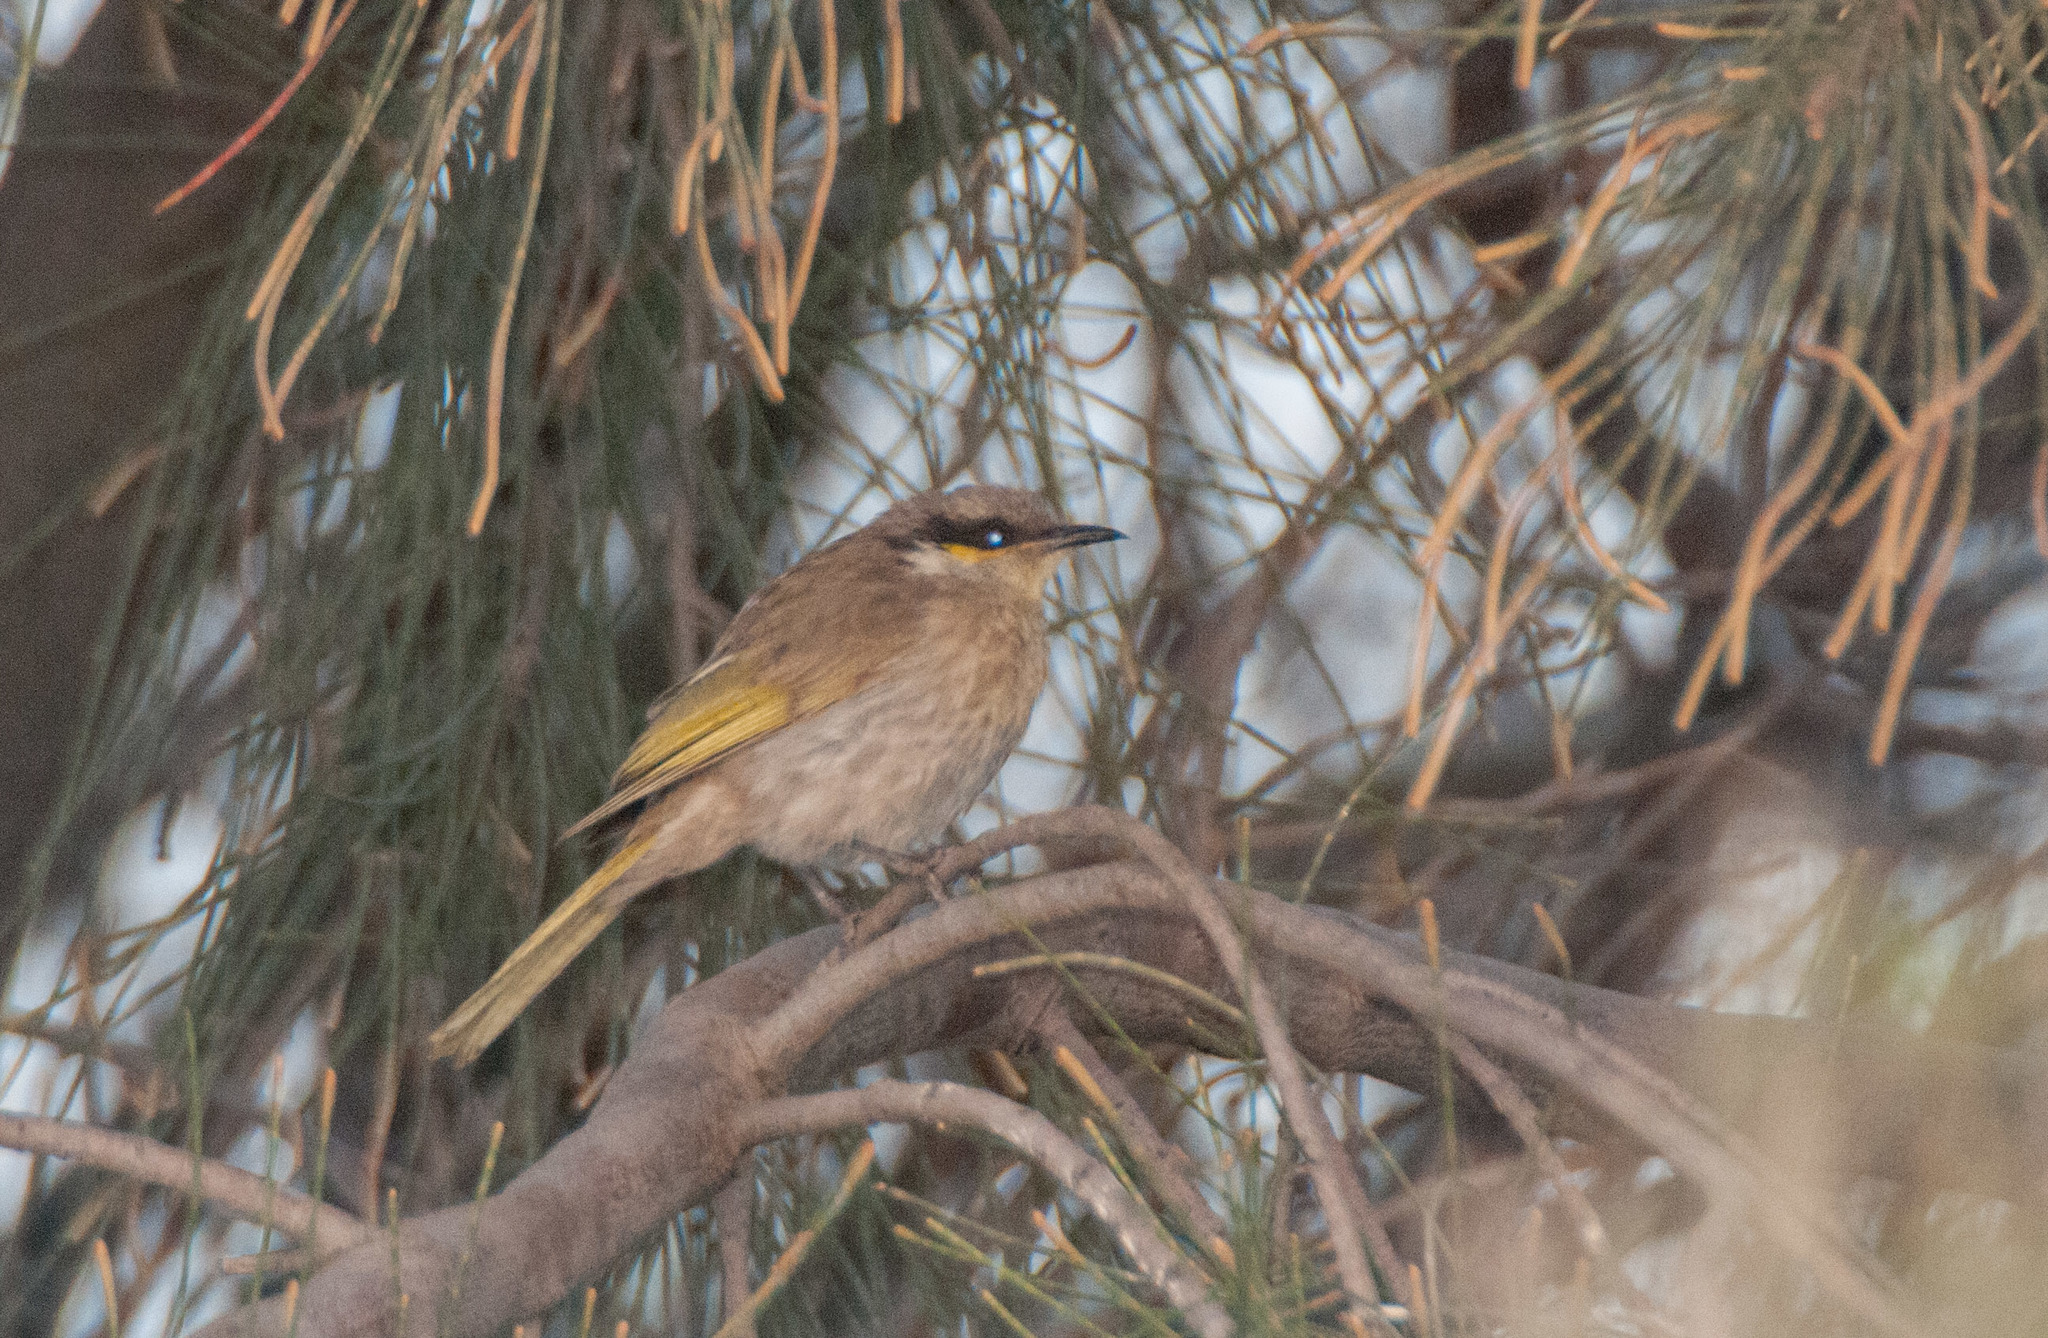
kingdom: Animalia
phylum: Chordata
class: Aves
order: Passeriformes
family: Meliphagidae
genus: Gavicalis
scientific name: Gavicalis virescens
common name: Singing honeyeater
